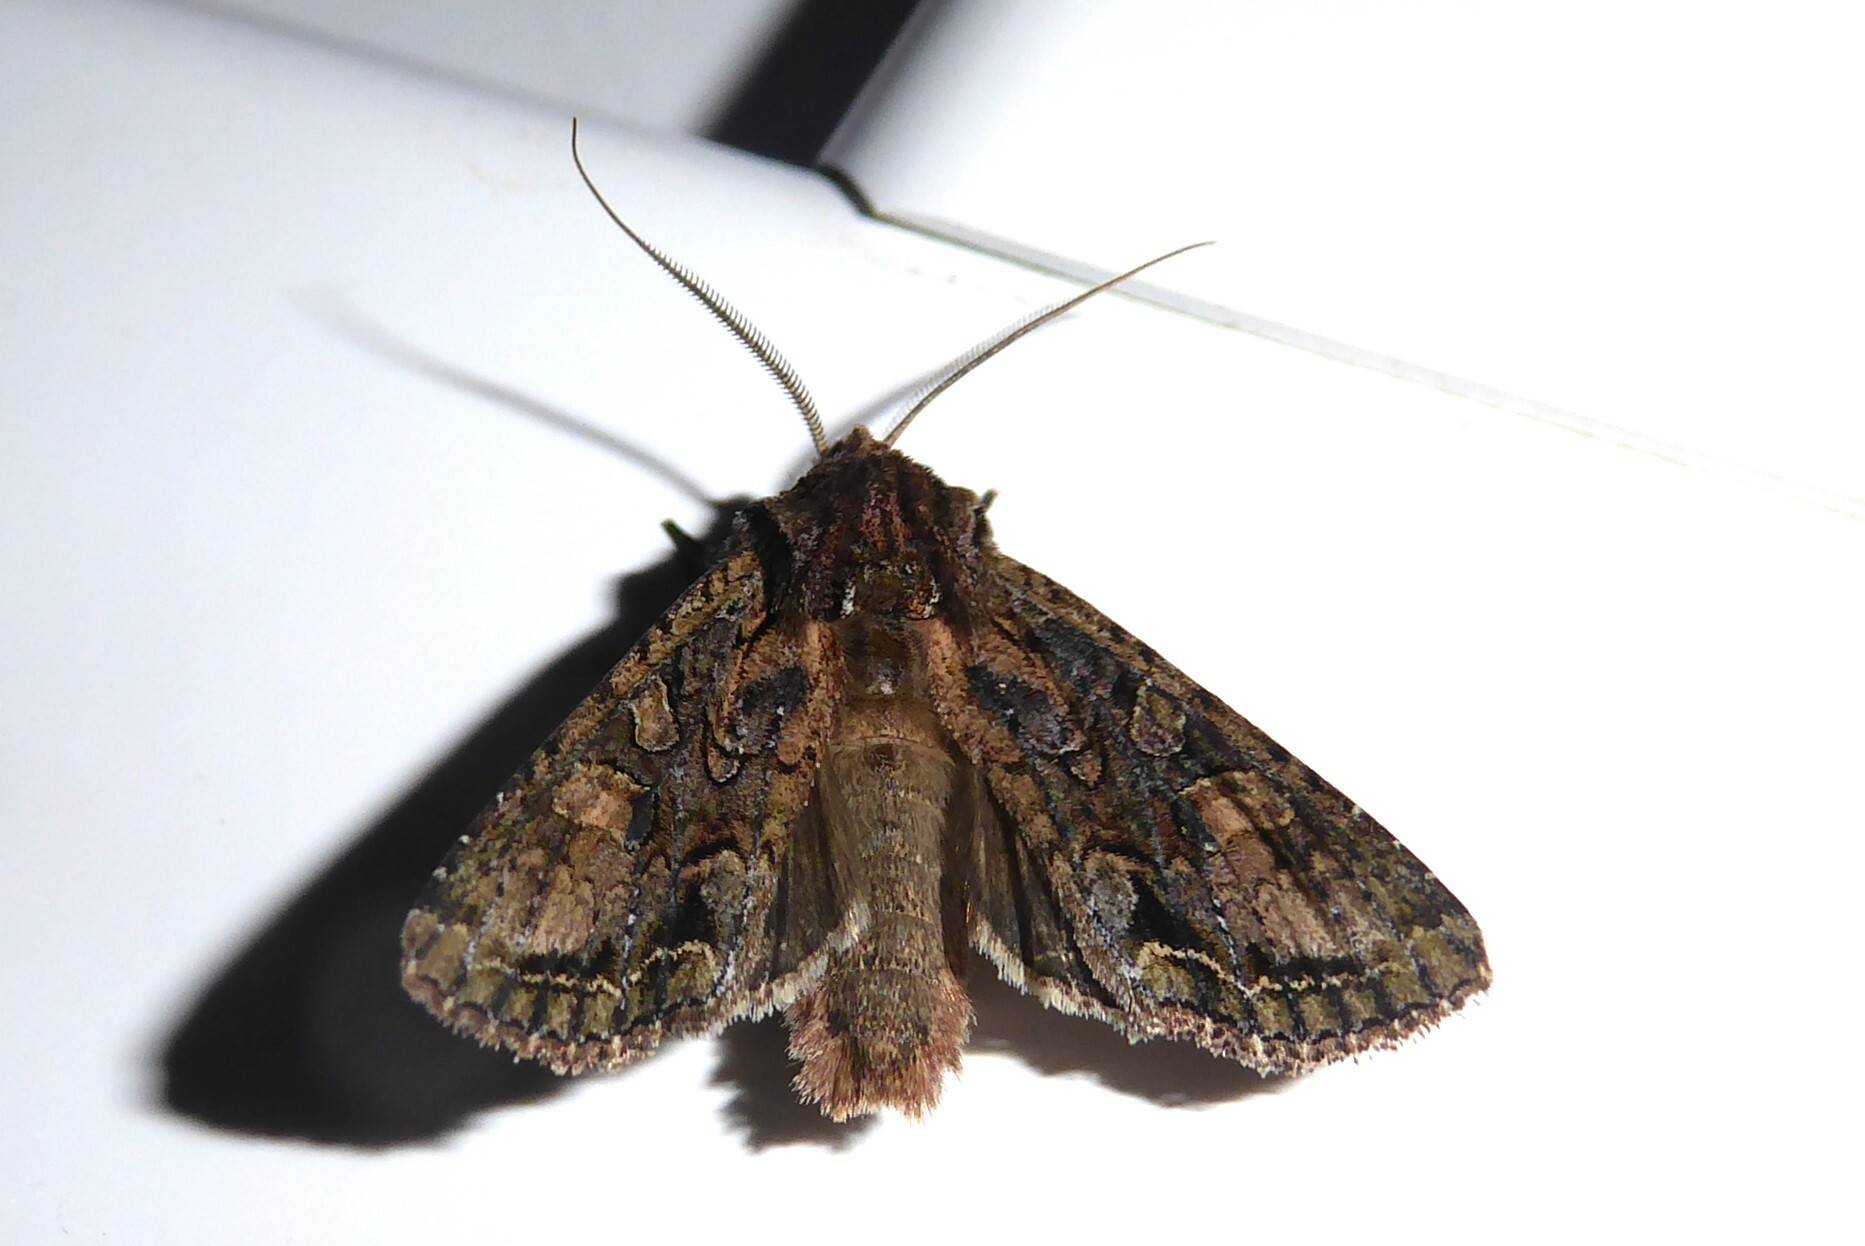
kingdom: Animalia
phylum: Arthropoda
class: Insecta
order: Lepidoptera
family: Noctuidae
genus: Ichneutica
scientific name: Ichneutica mutans
